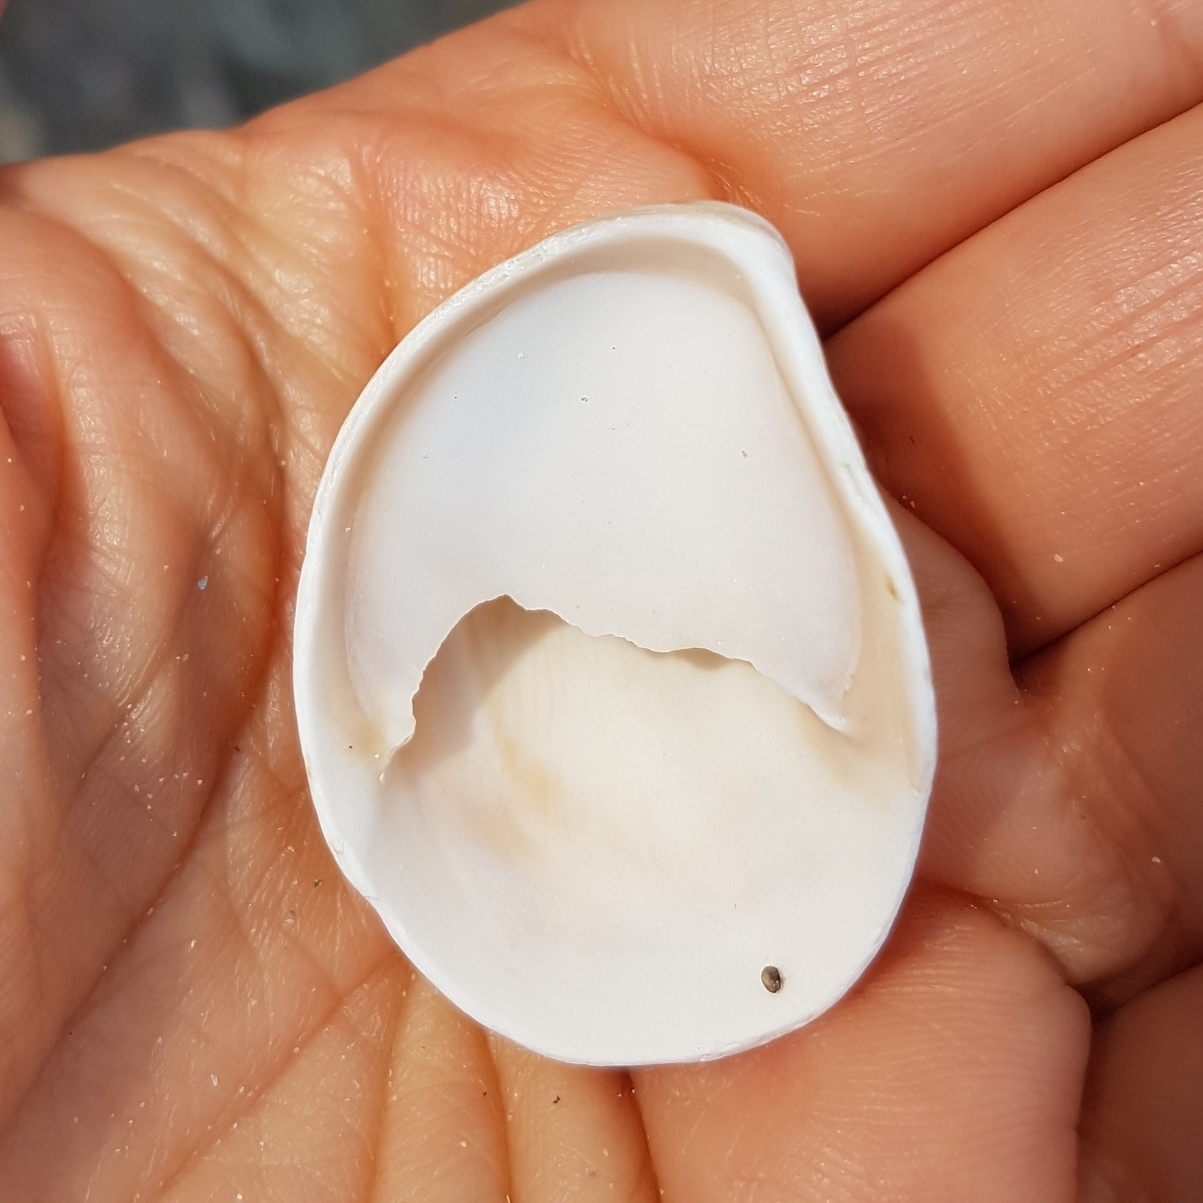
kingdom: Animalia
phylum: Mollusca
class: Gastropoda
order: Littorinimorpha
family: Calyptraeidae
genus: Crepidula
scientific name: Crepidula fornicata
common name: Slipper limpet
